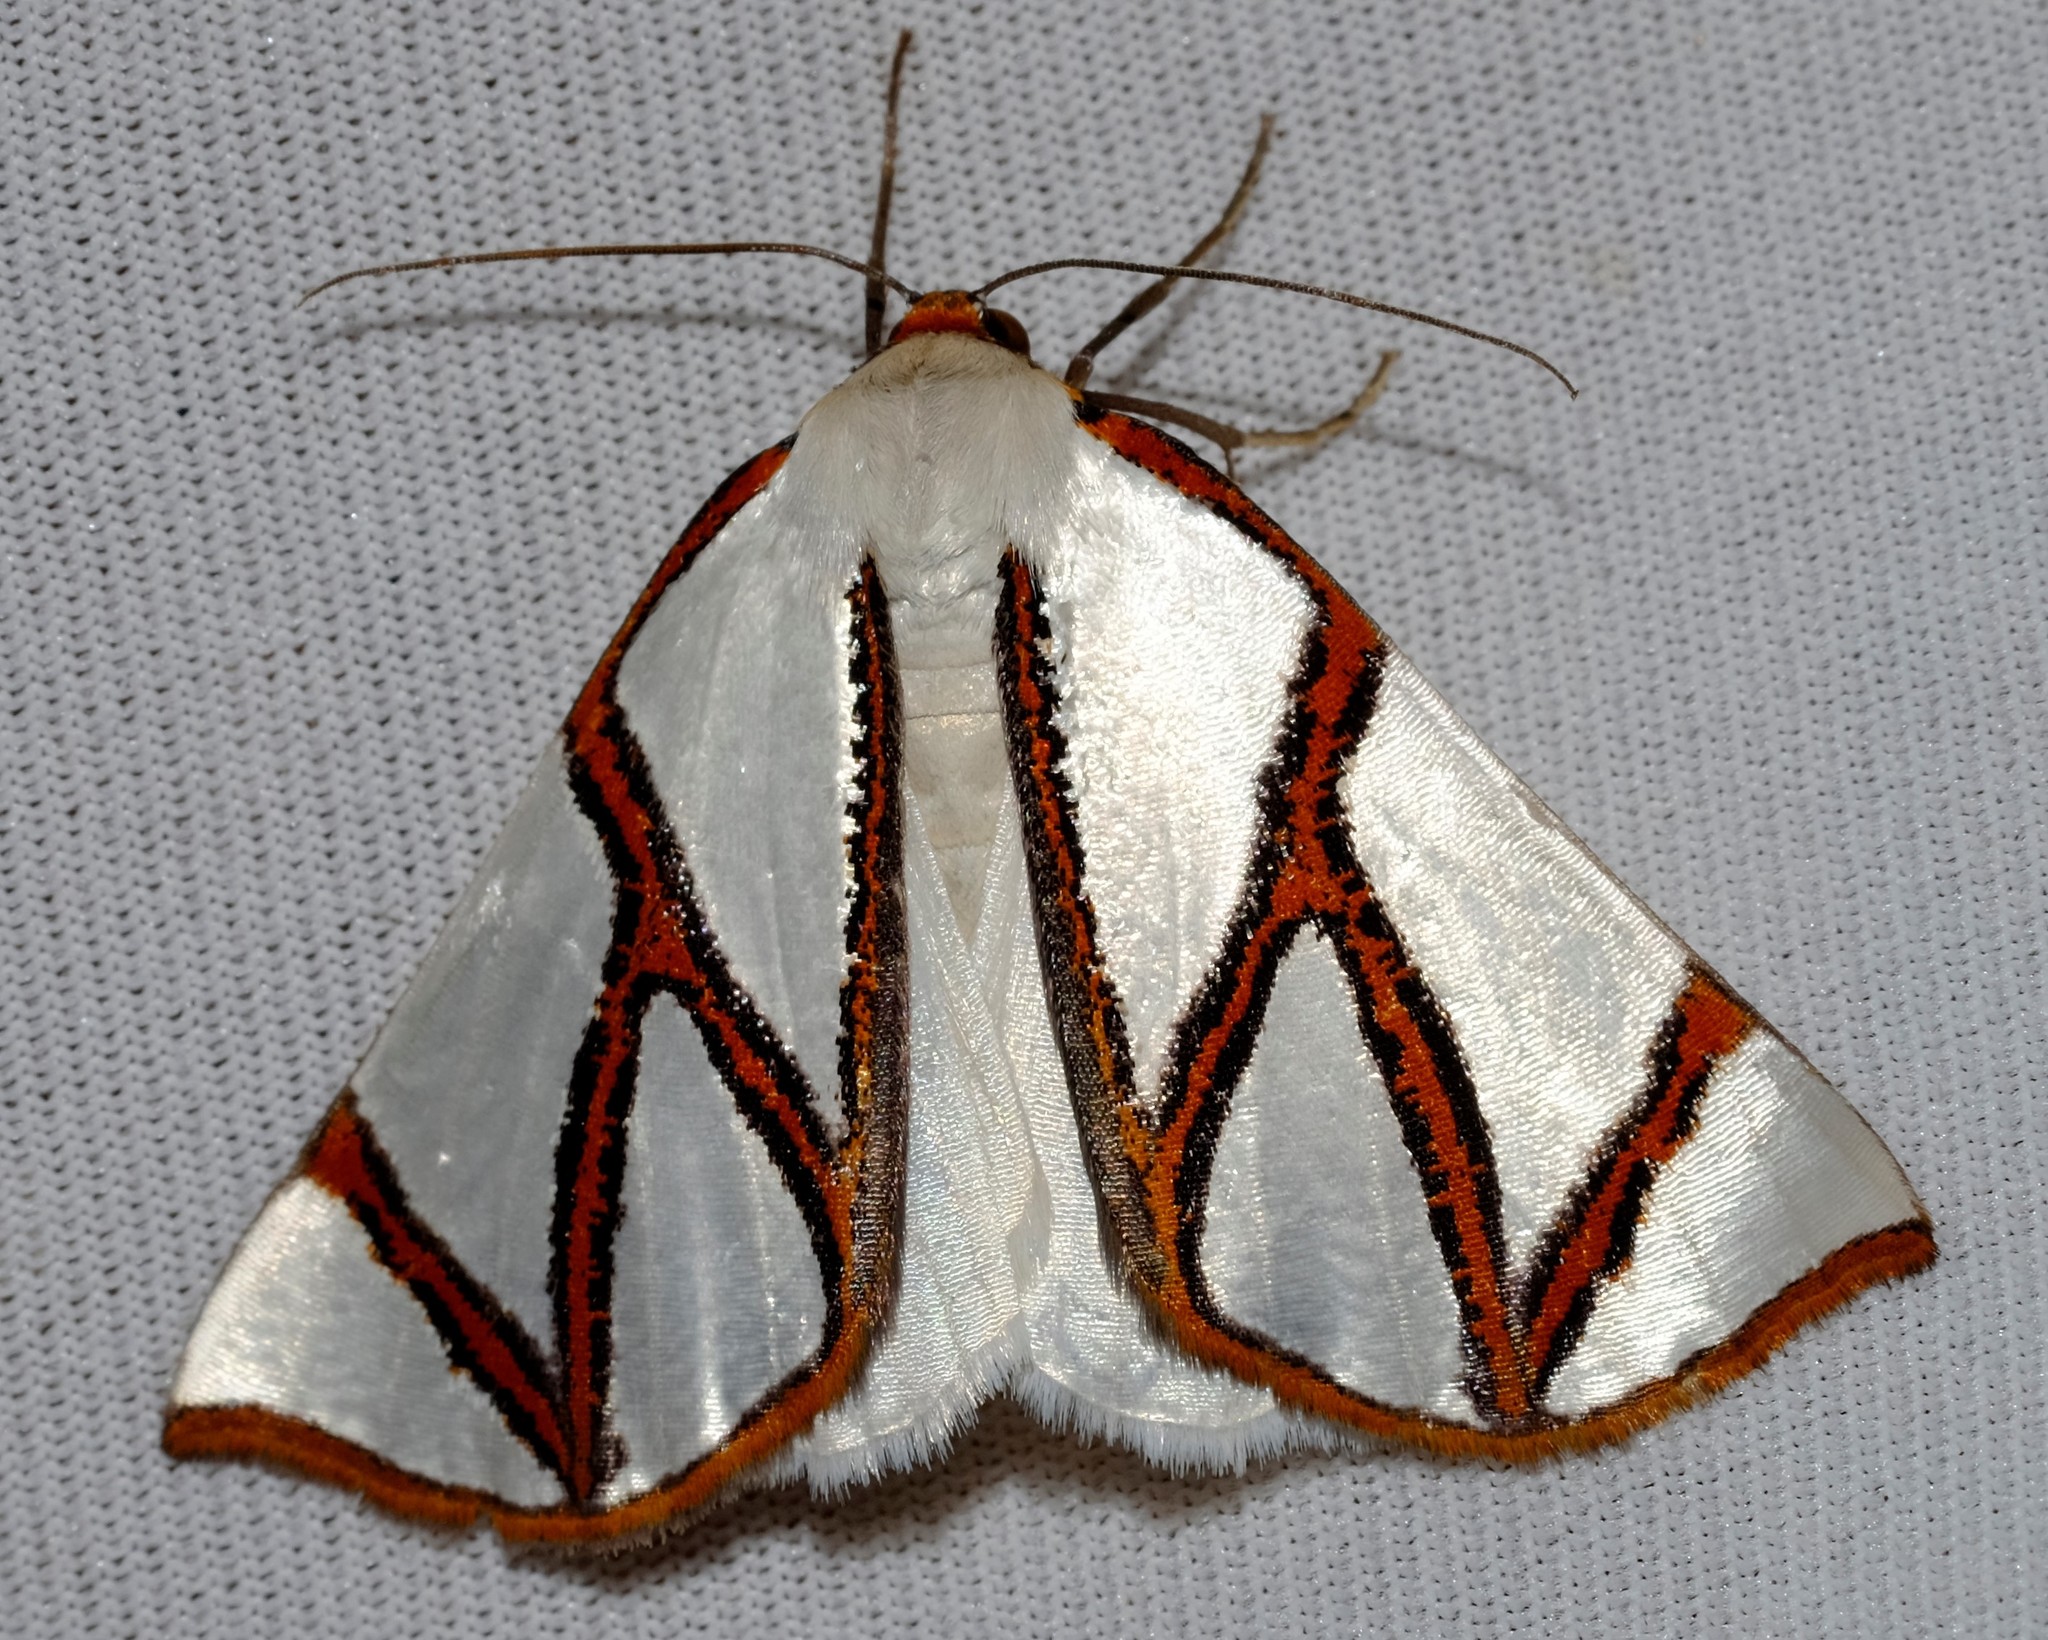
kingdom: Animalia
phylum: Arthropoda
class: Insecta
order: Lepidoptera
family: Geometridae
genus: Thalaina
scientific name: Thalaina clara
